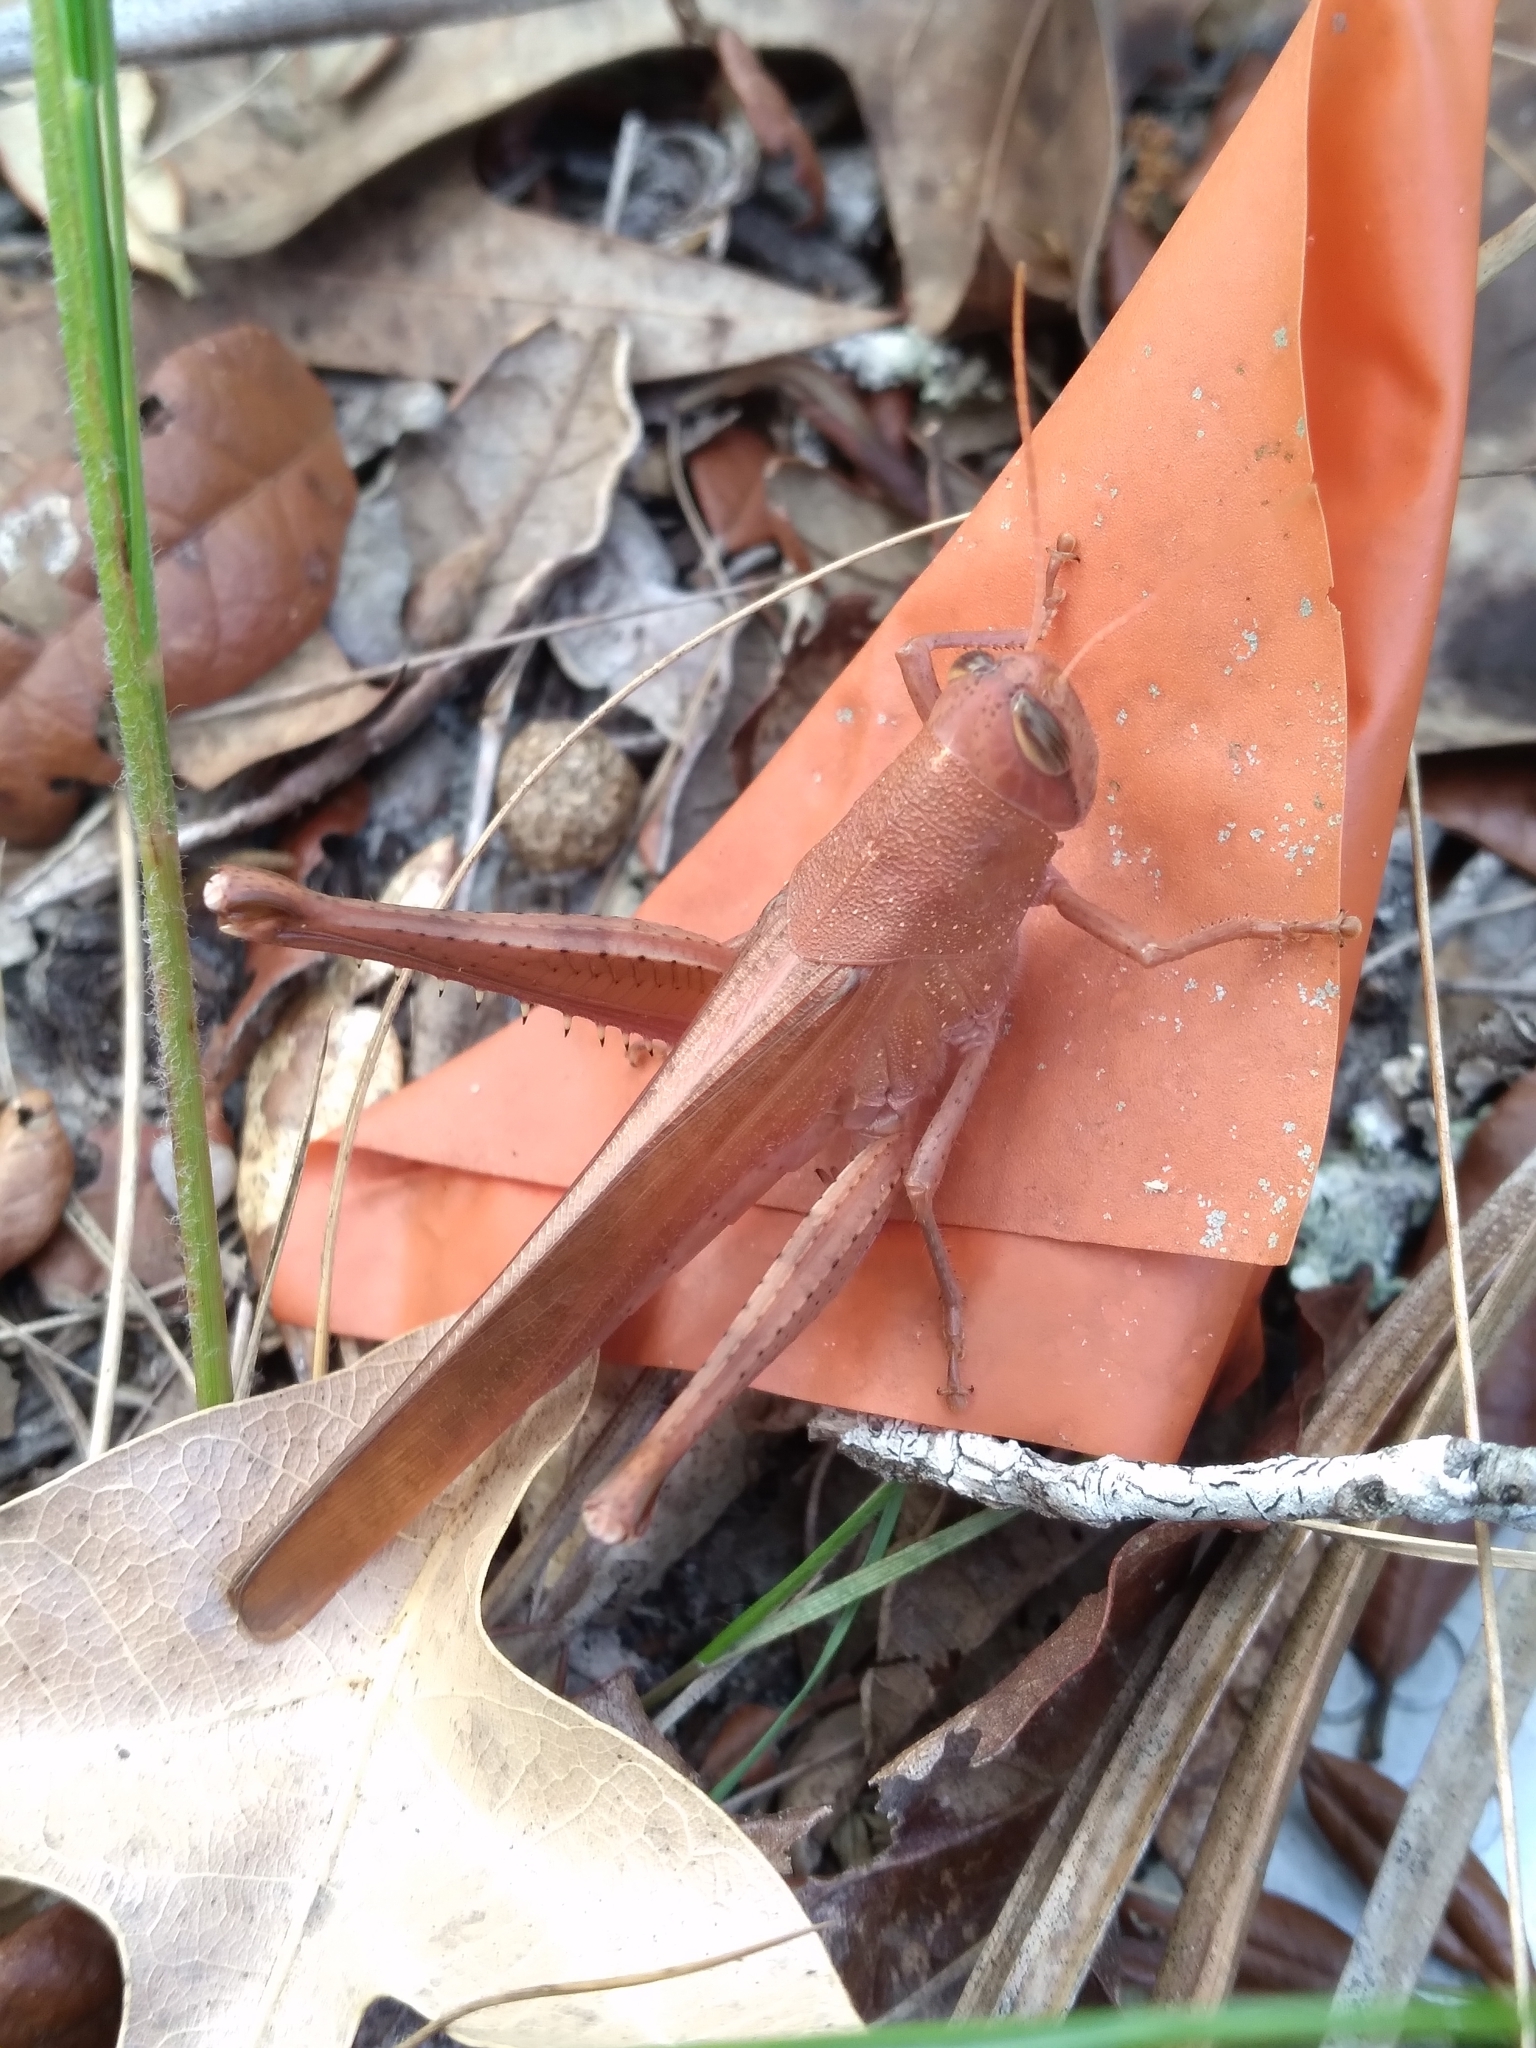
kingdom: Animalia
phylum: Arthropoda
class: Insecta
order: Orthoptera
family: Acrididae
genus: Schistocerca
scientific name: Schistocerca rubiginosa
